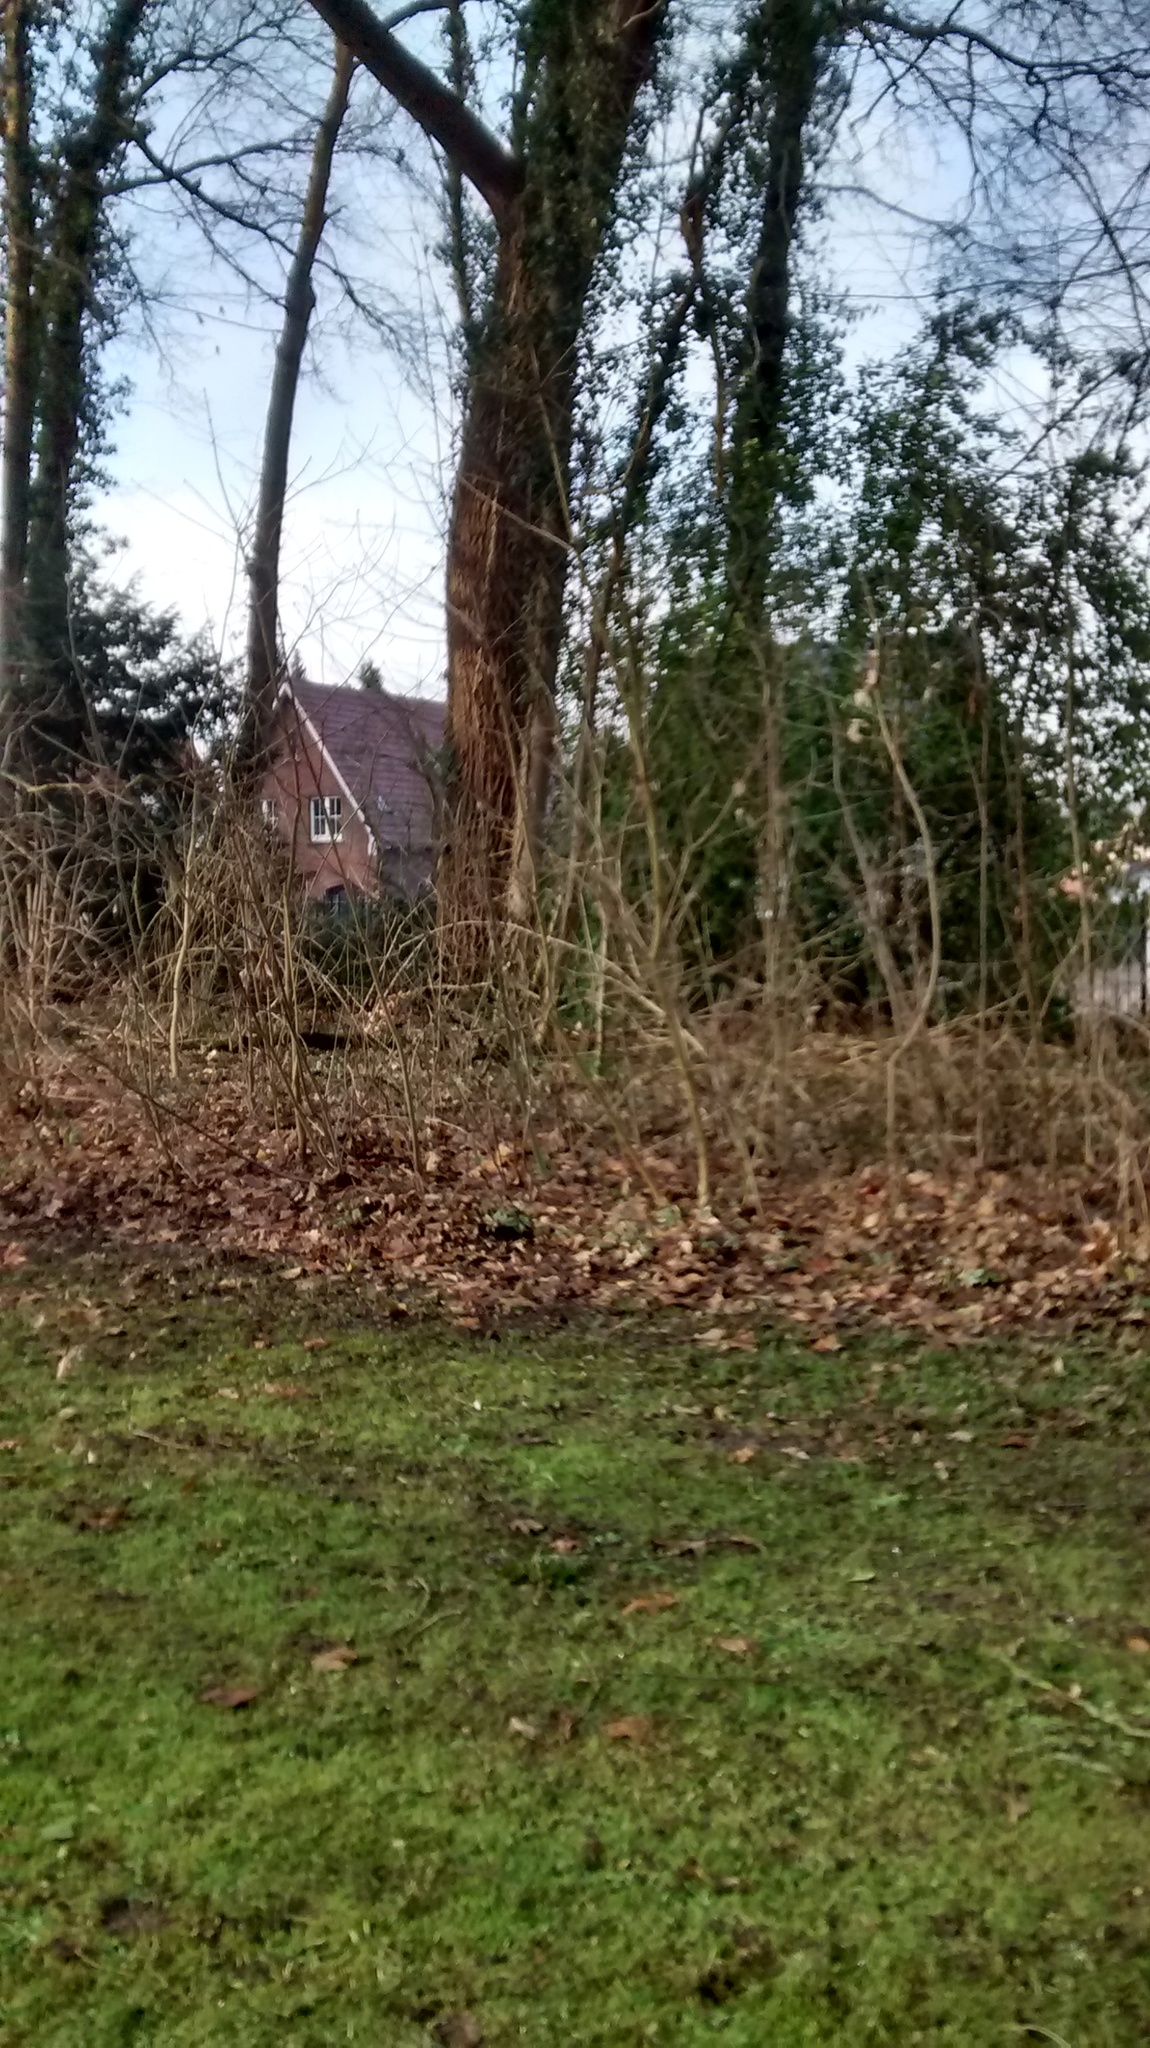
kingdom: Animalia
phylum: Chordata
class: Aves
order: Passeriformes
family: Fringillidae
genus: Fringilla
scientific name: Fringilla coelebs
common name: Common chaffinch
